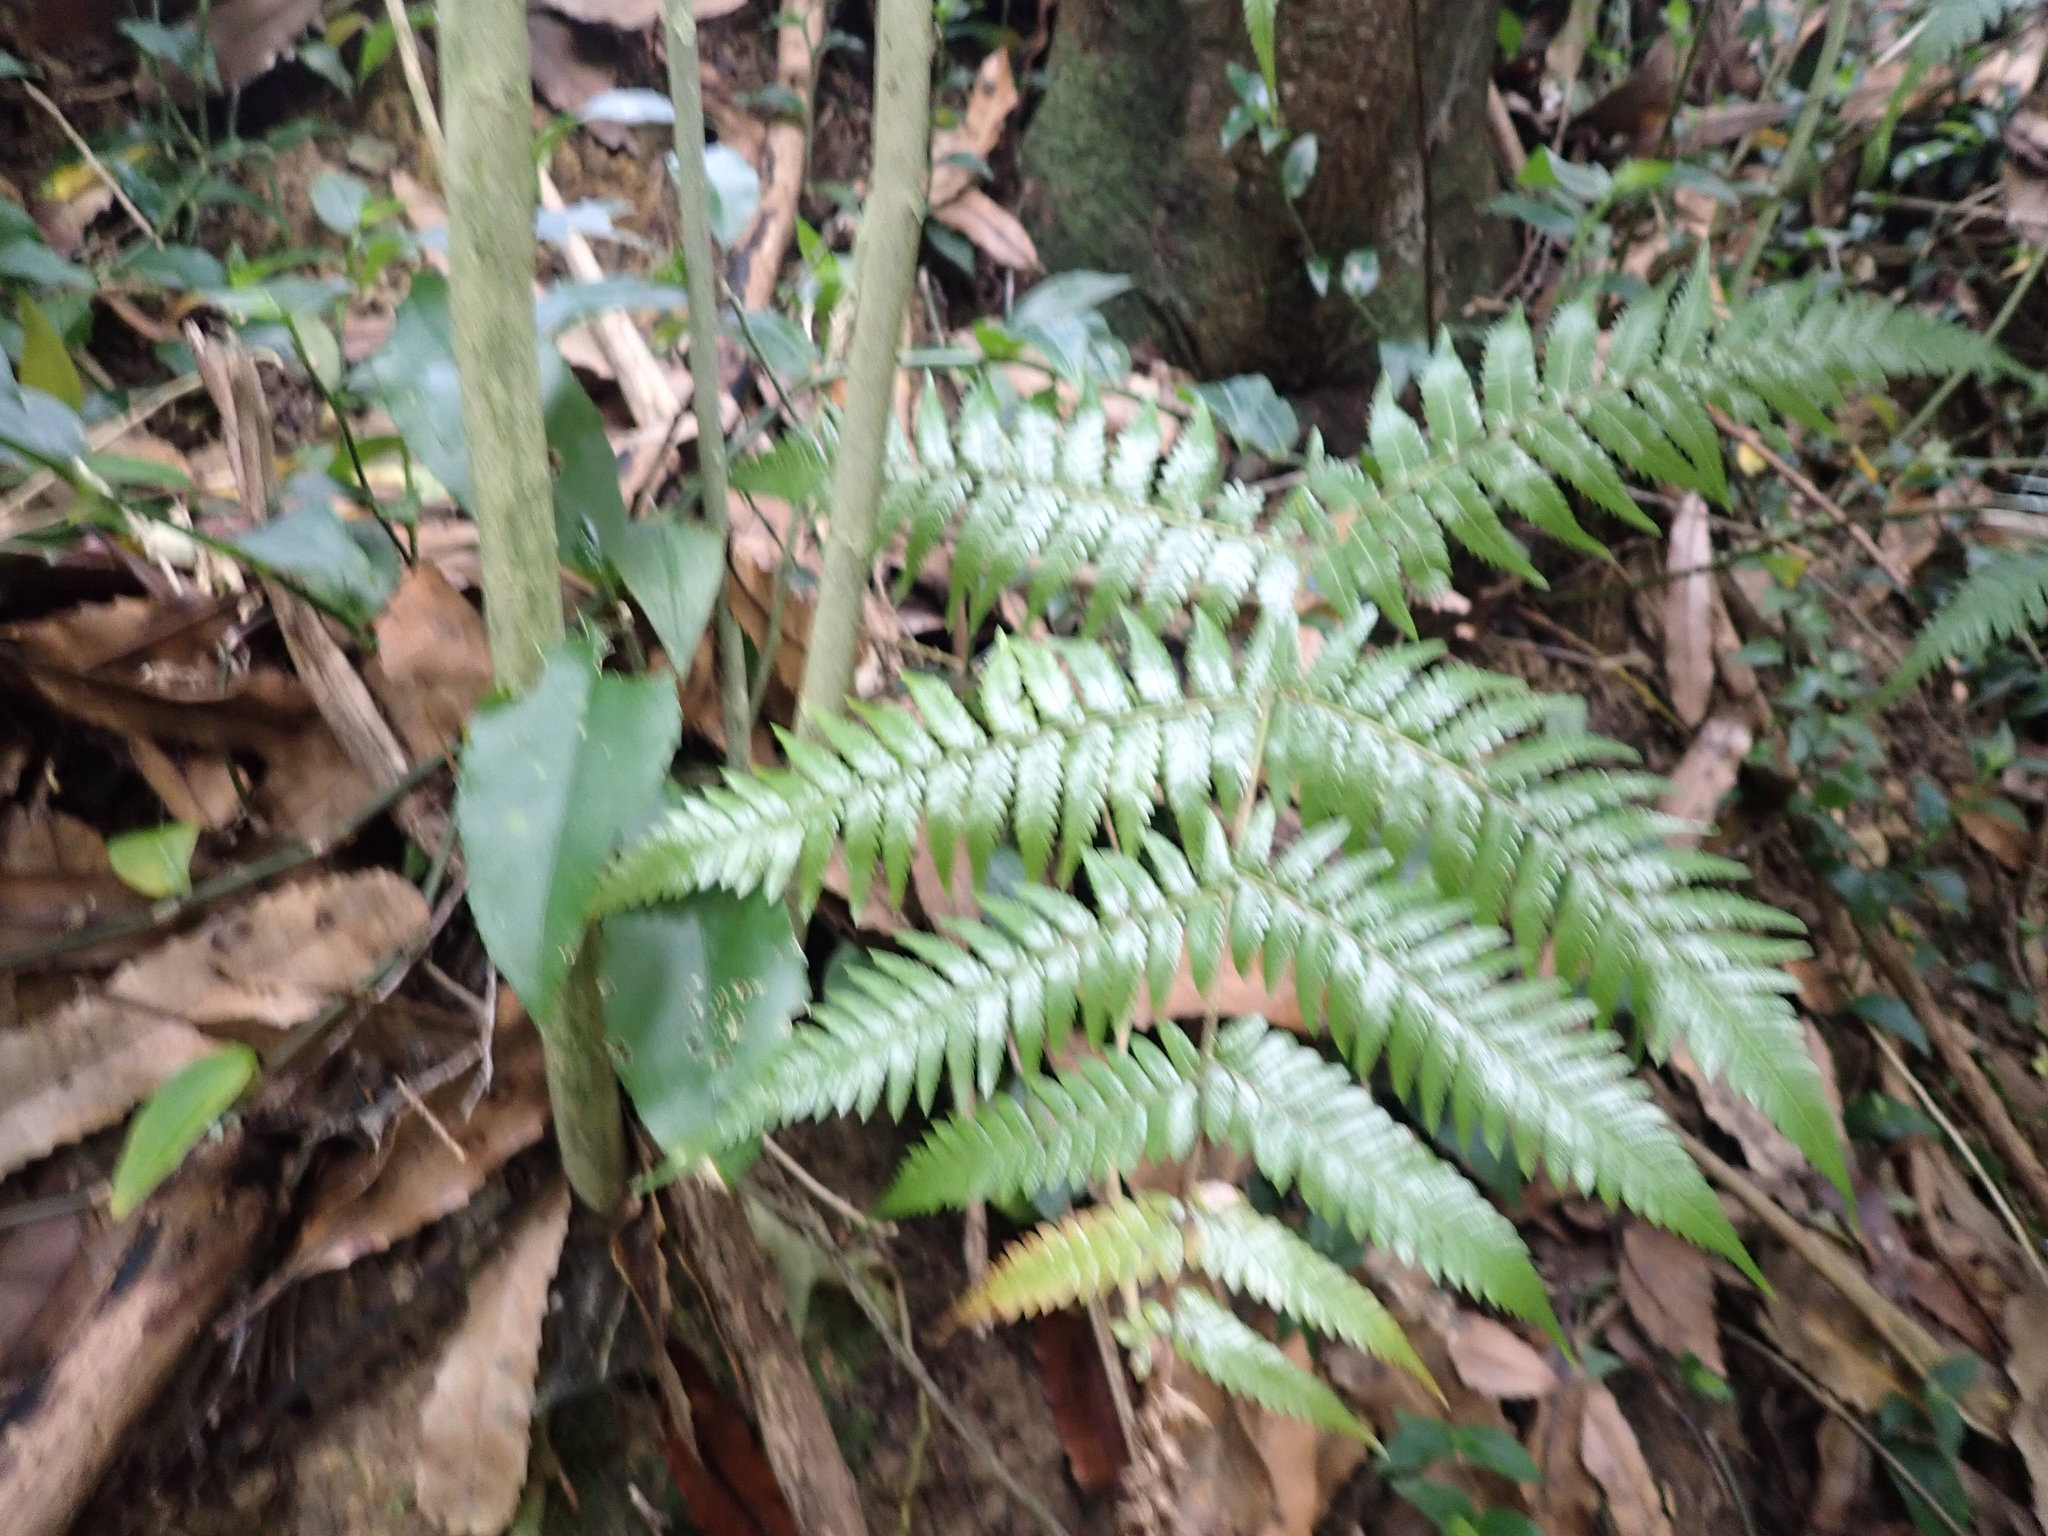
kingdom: Plantae
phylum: Tracheophyta
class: Polypodiopsida
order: Cyatheales
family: Cyatheaceae
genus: Alsophila
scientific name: Alsophila dealbata
